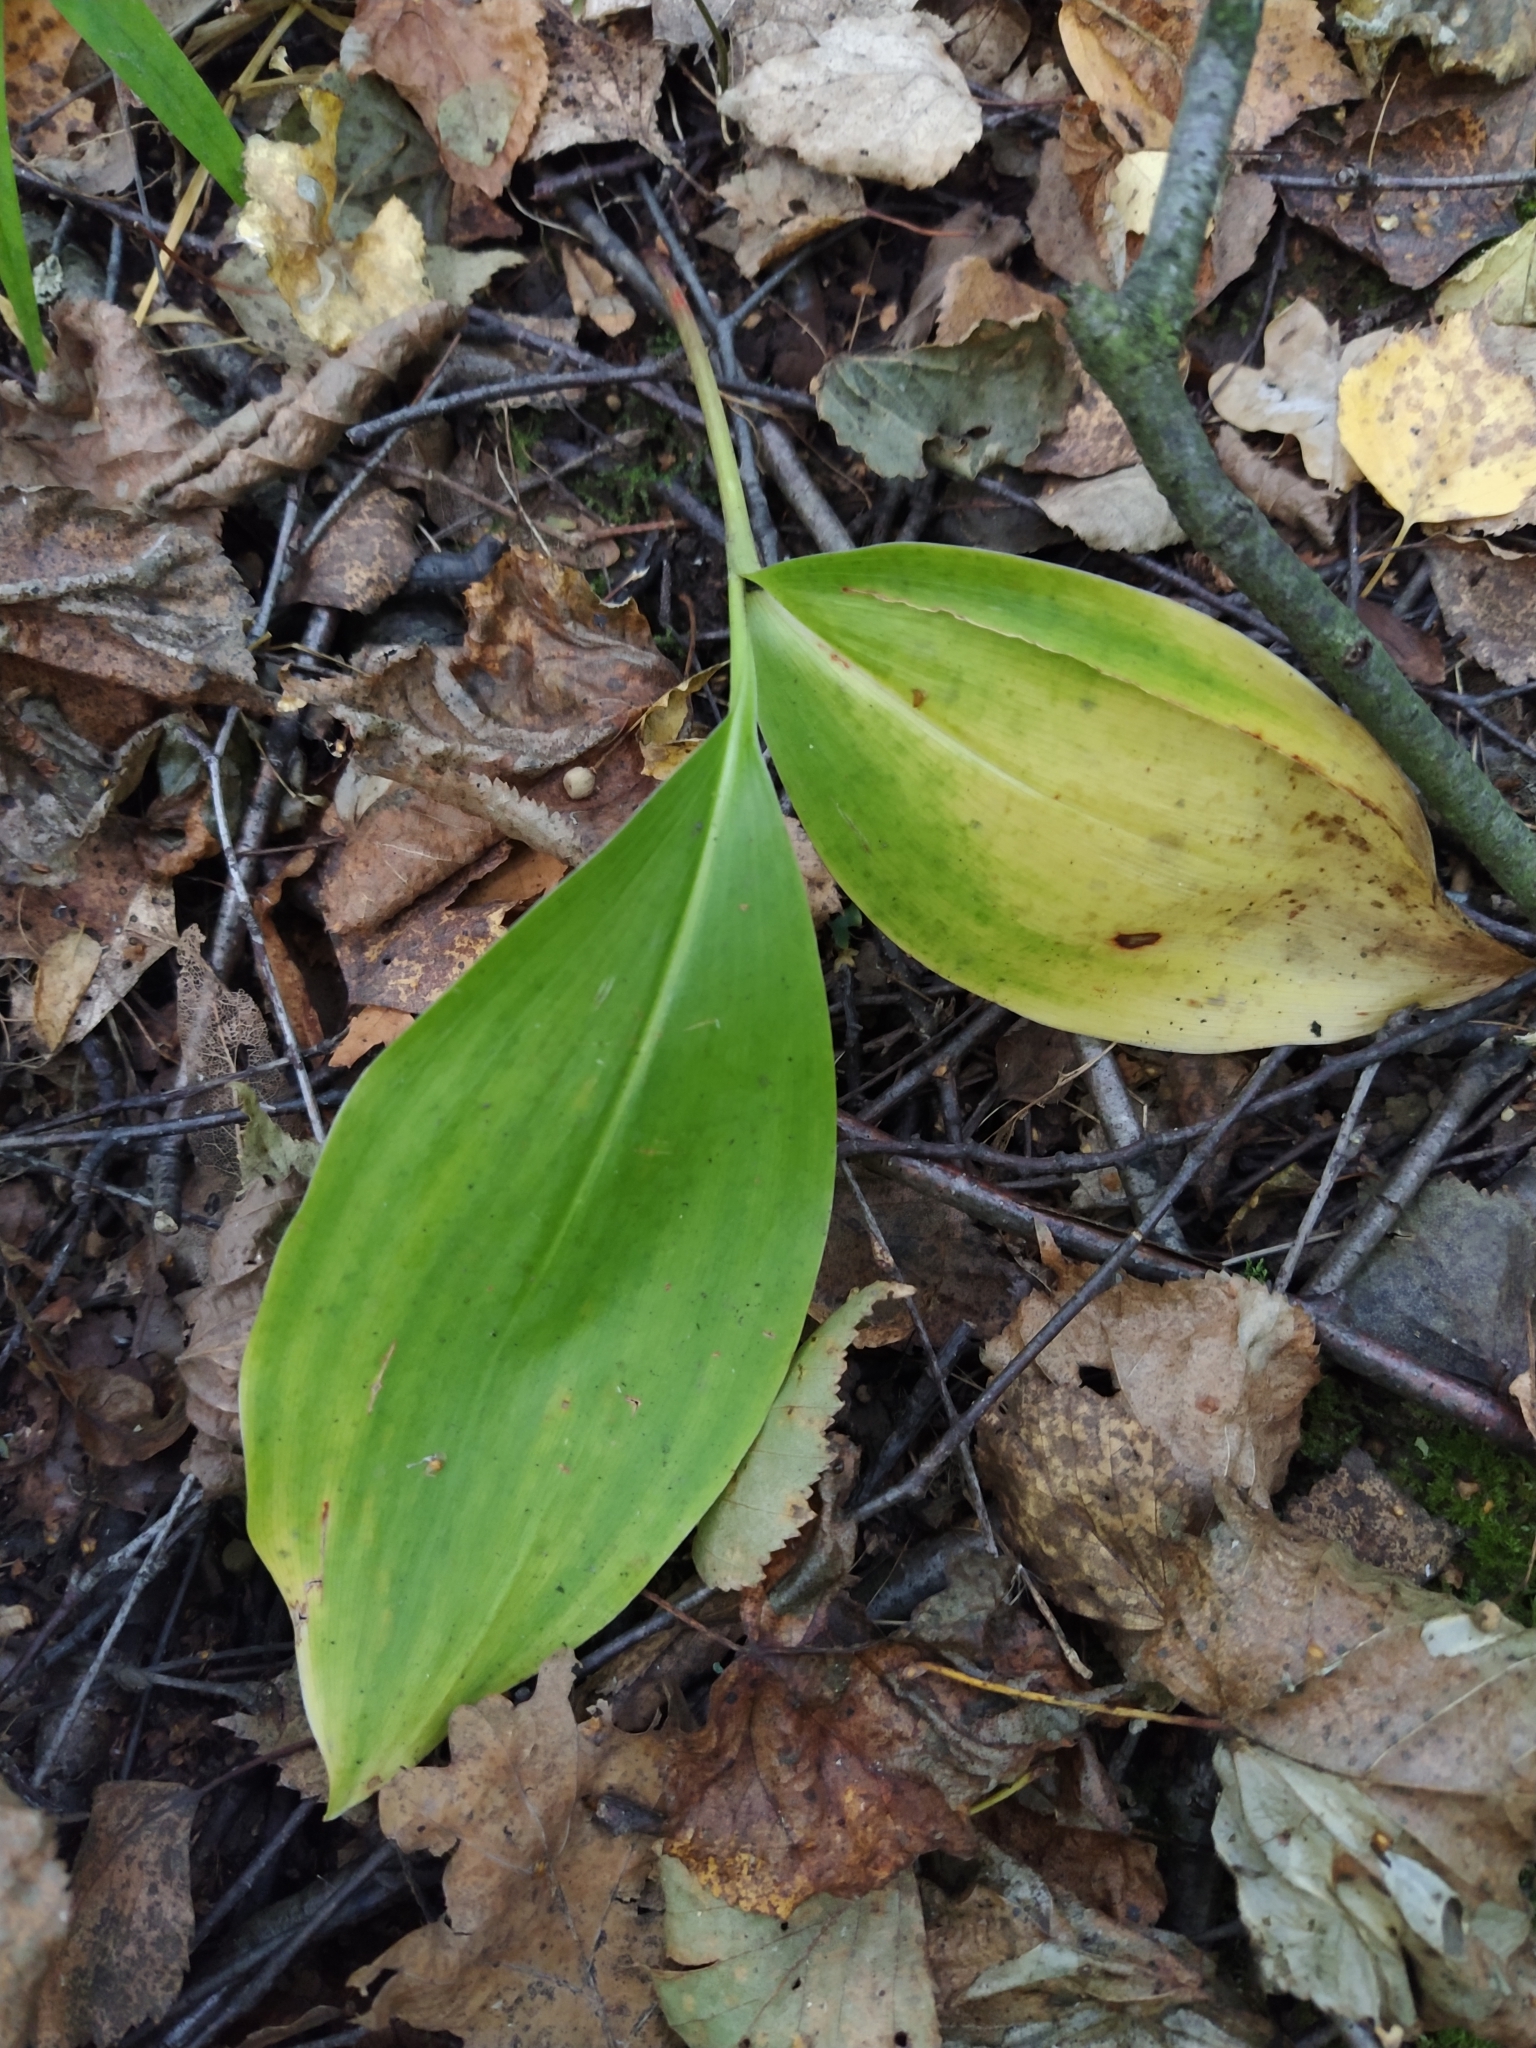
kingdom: Plantae
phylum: Tracheophyta
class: Liliopsida
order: Asparagales
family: Asparagaceae
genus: Convallaria
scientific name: Convallaria majalis
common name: Lily-of-the-valley
